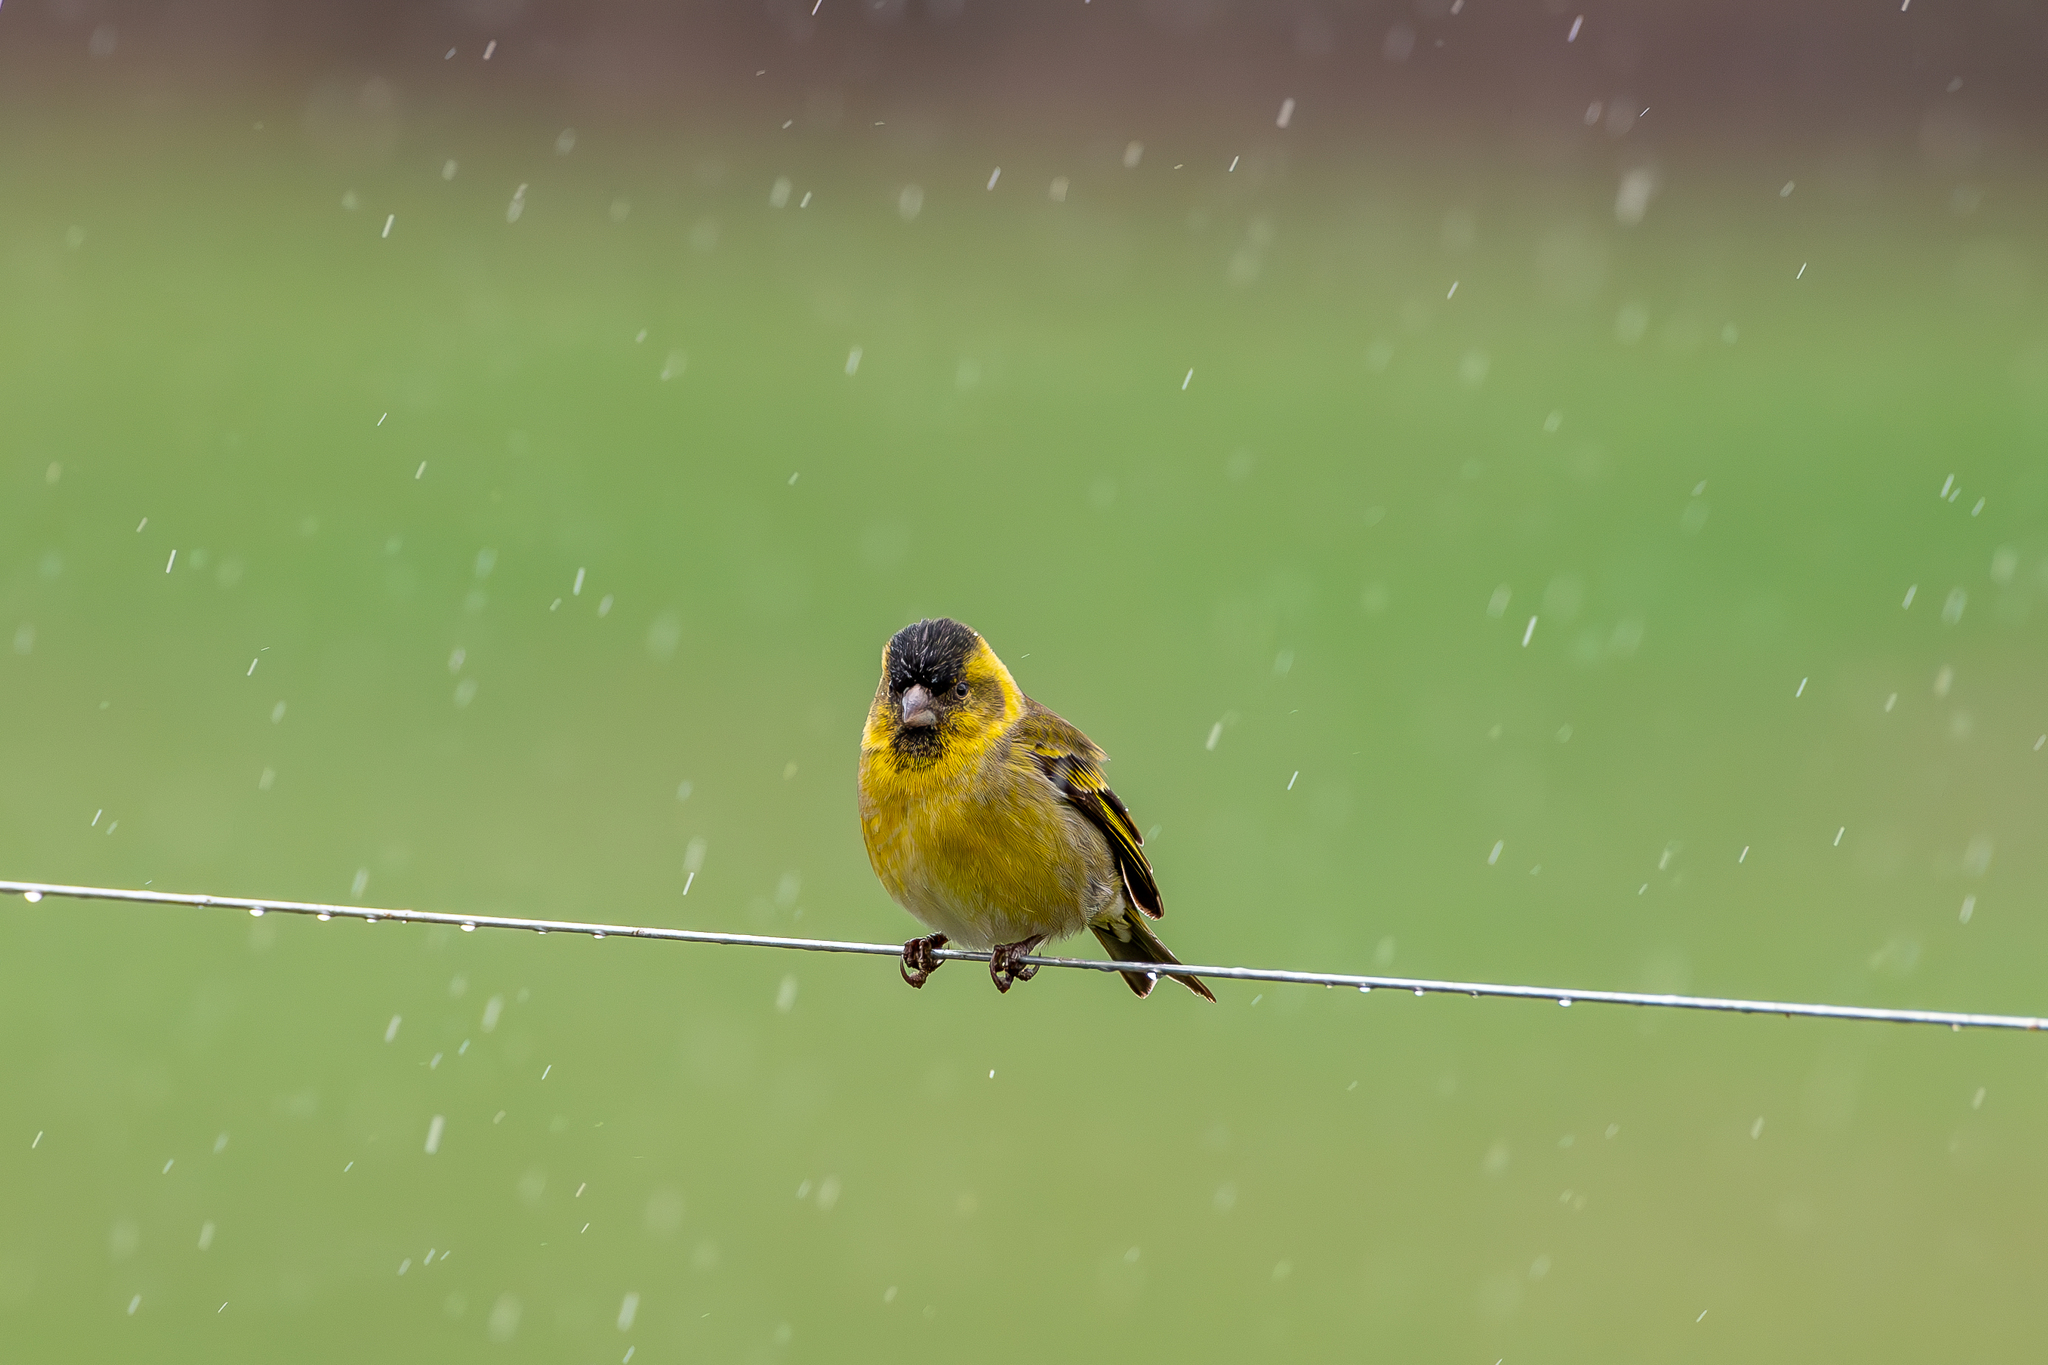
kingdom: Animalia
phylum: Chordata
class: Aves
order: Passeriformes
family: Fringillidae
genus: Spinus
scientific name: Spinus barbatus
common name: Black-chinned siskin
